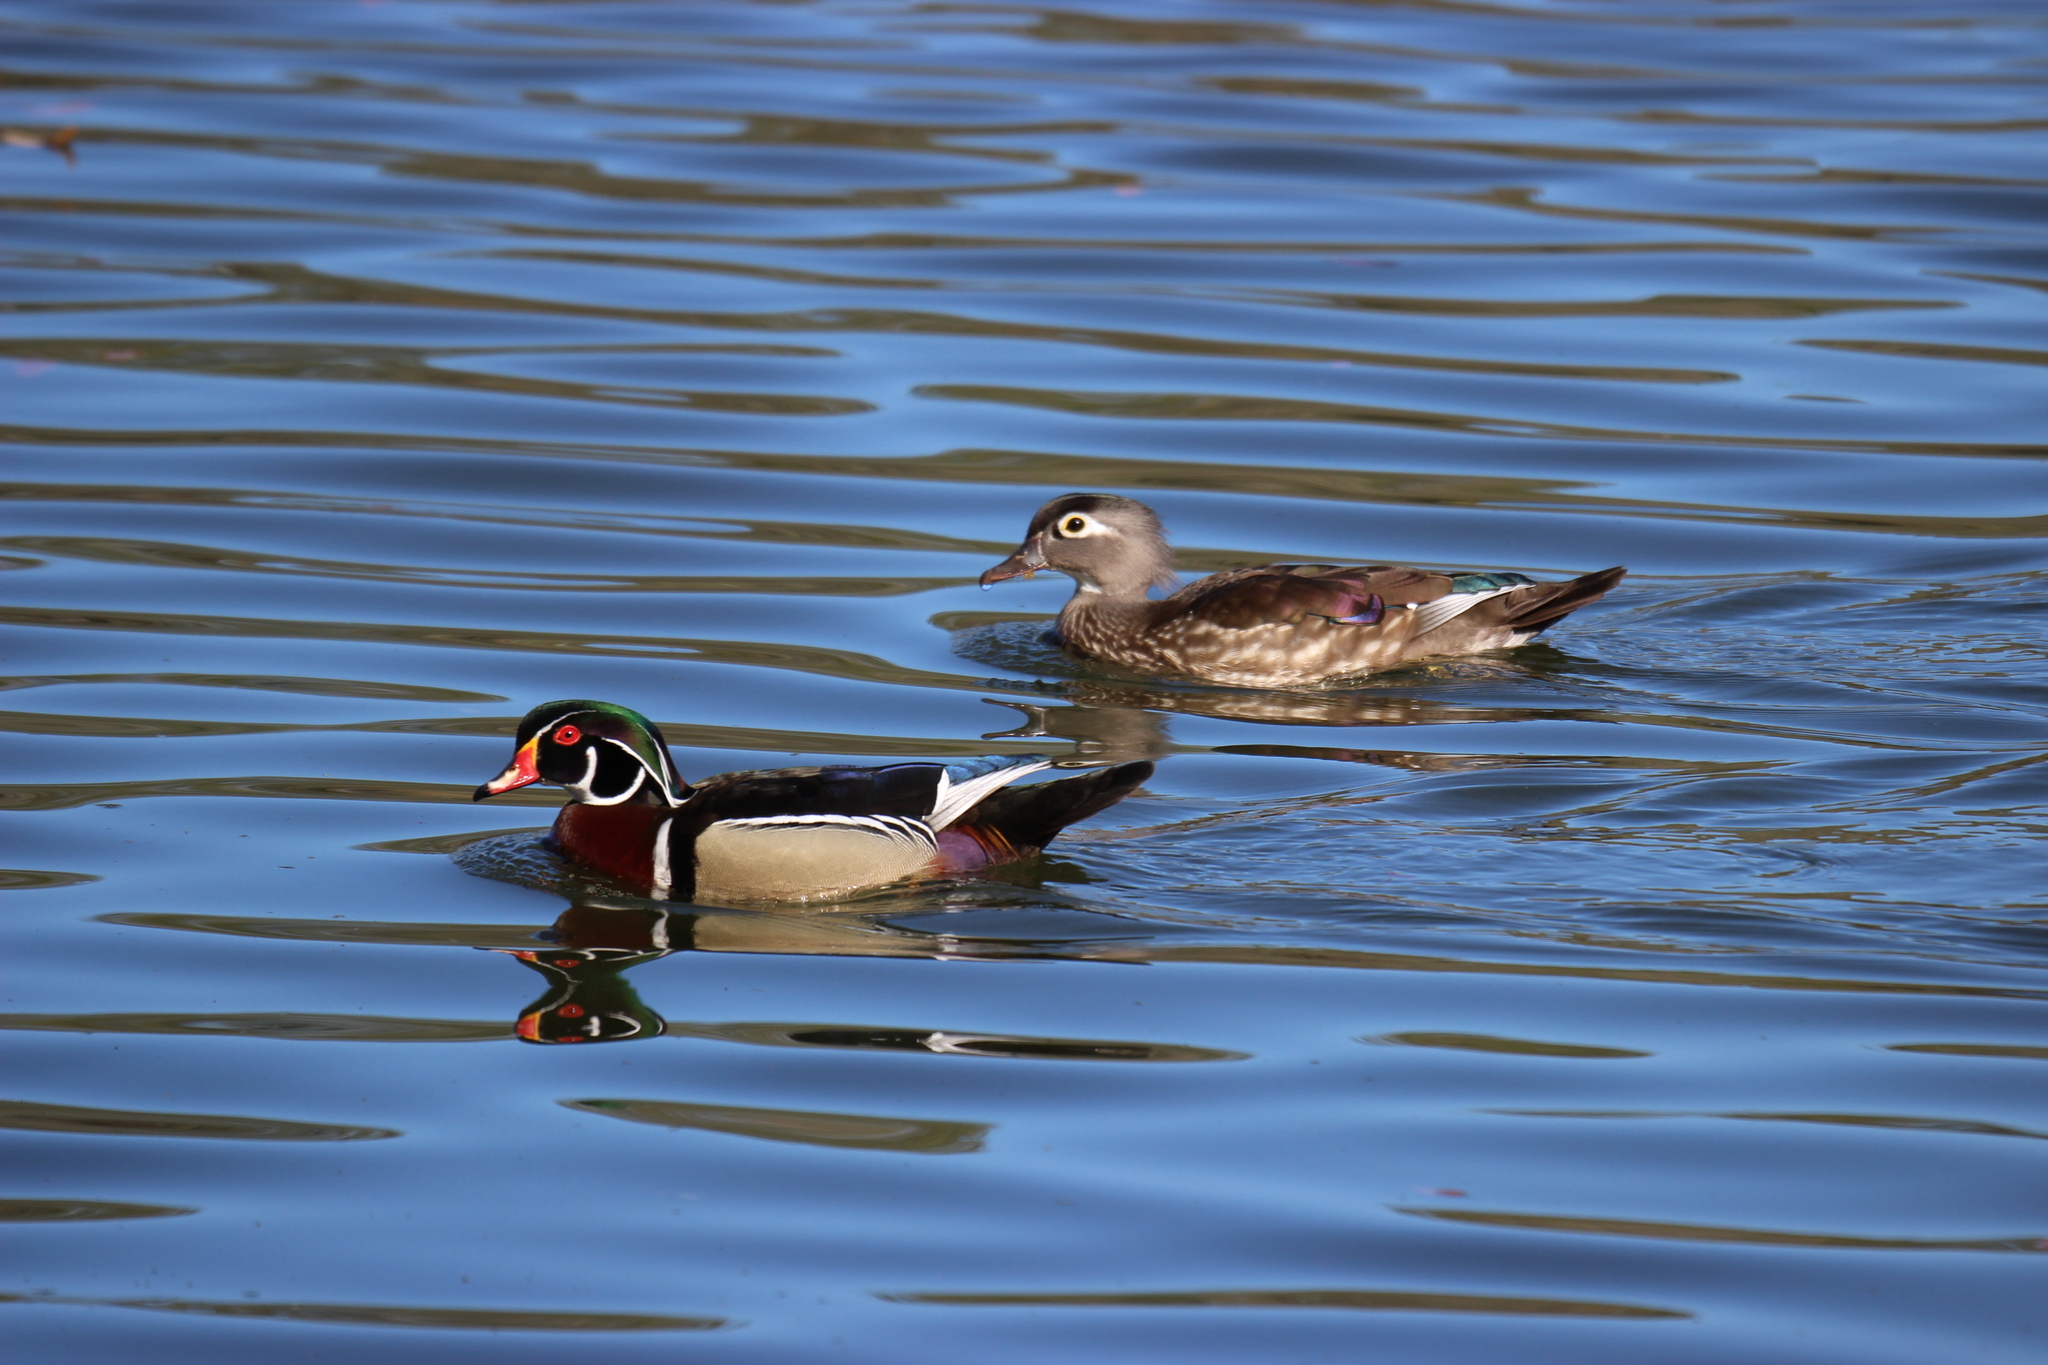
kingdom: Animalia
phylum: Chordata
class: Aves
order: Anseriformes
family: Anatidae
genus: Aix
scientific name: Aix sponsa
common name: Wood duck
